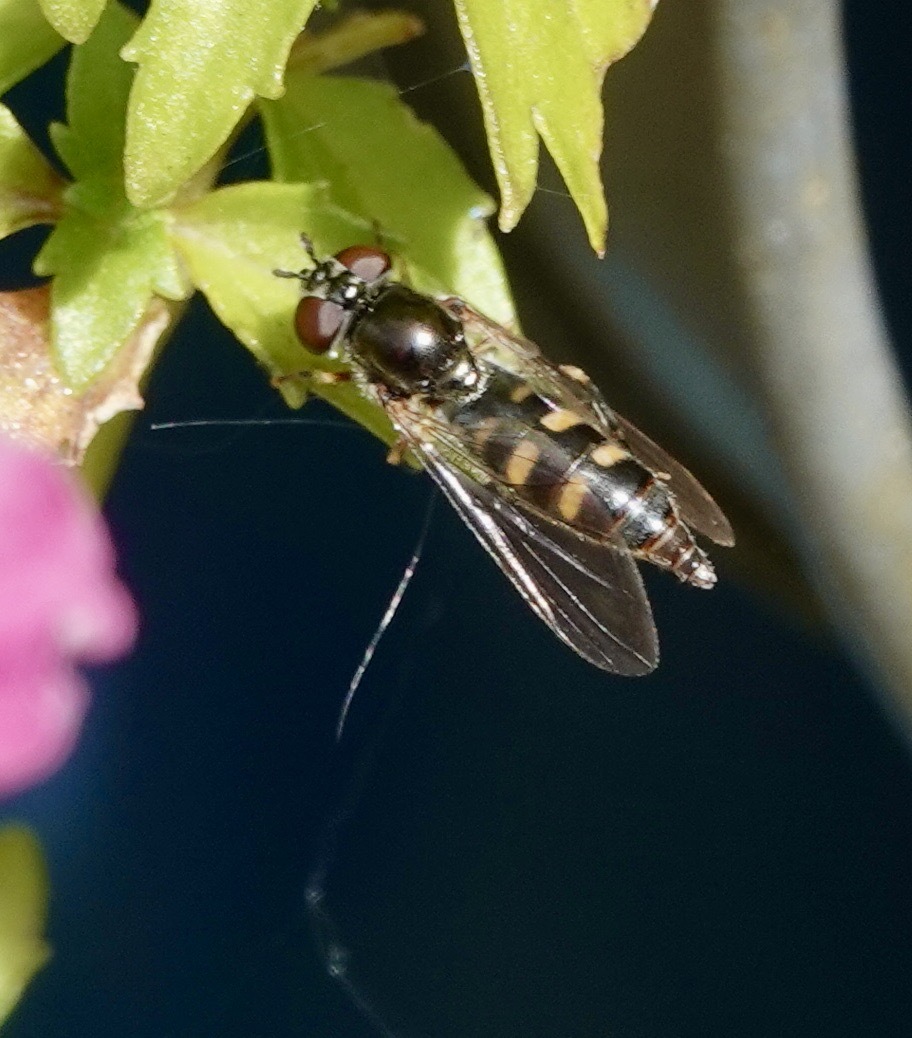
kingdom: Animalia
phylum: Arthropoda
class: Insecta
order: Diptera
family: Syrphidae
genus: Platycheirus
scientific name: Platycheirus
